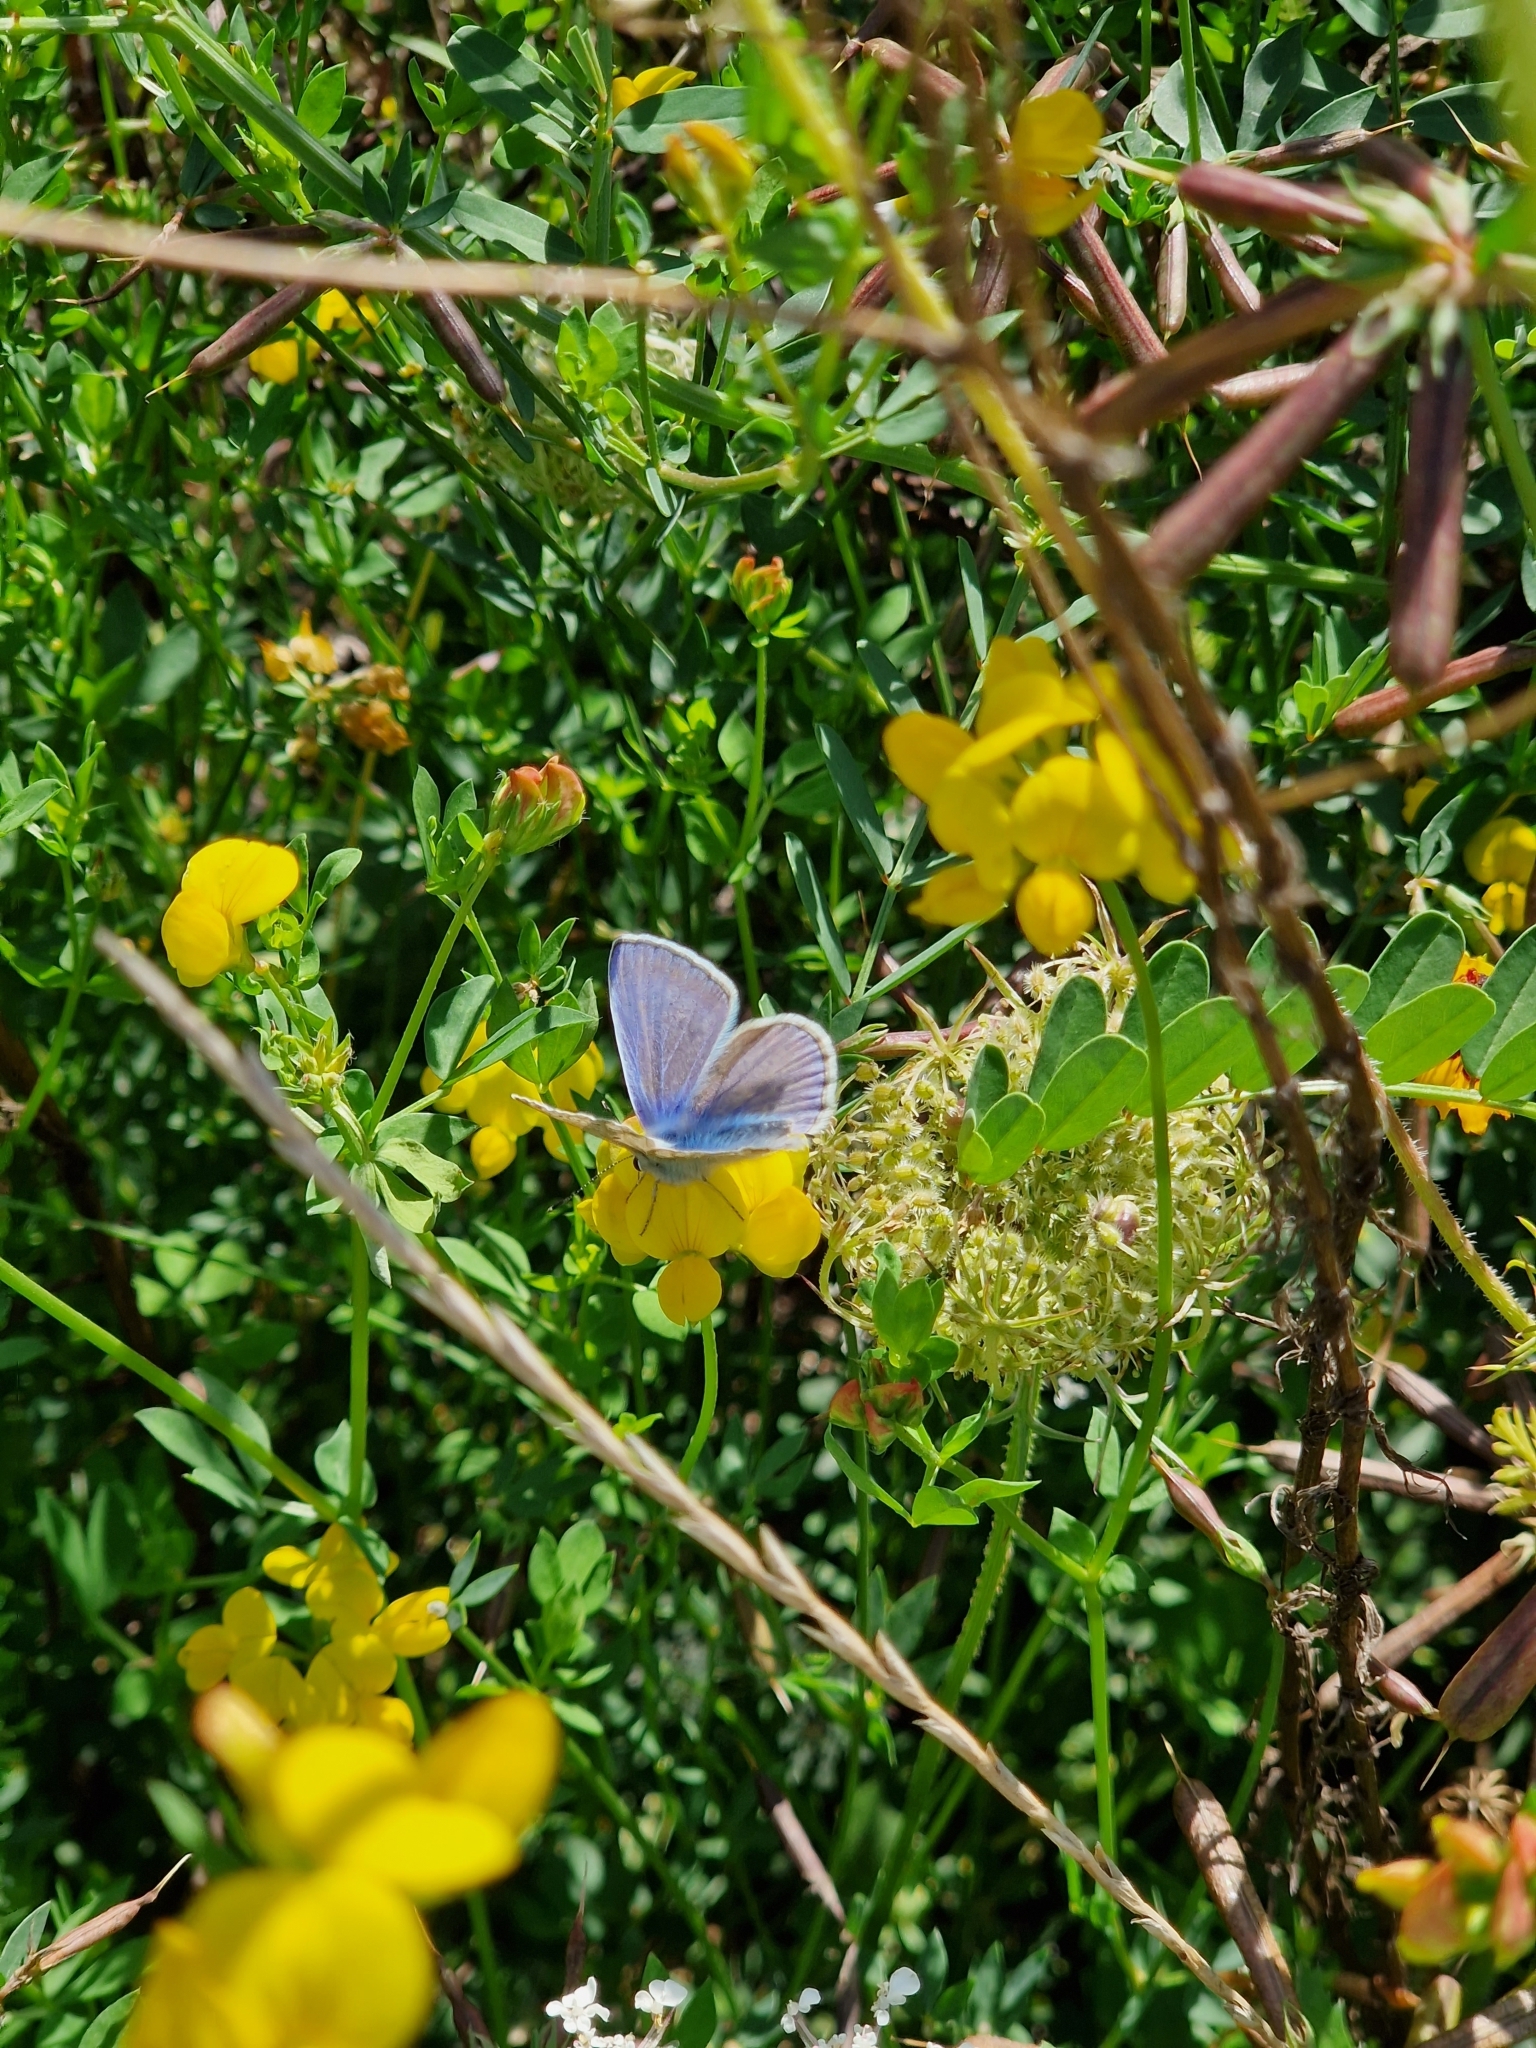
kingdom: Animalia
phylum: Arthropoda
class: Insecta
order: Lepidoptera
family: Lycaenidae
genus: Polyommatus
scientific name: Polyommatus icarus
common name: Common blue
